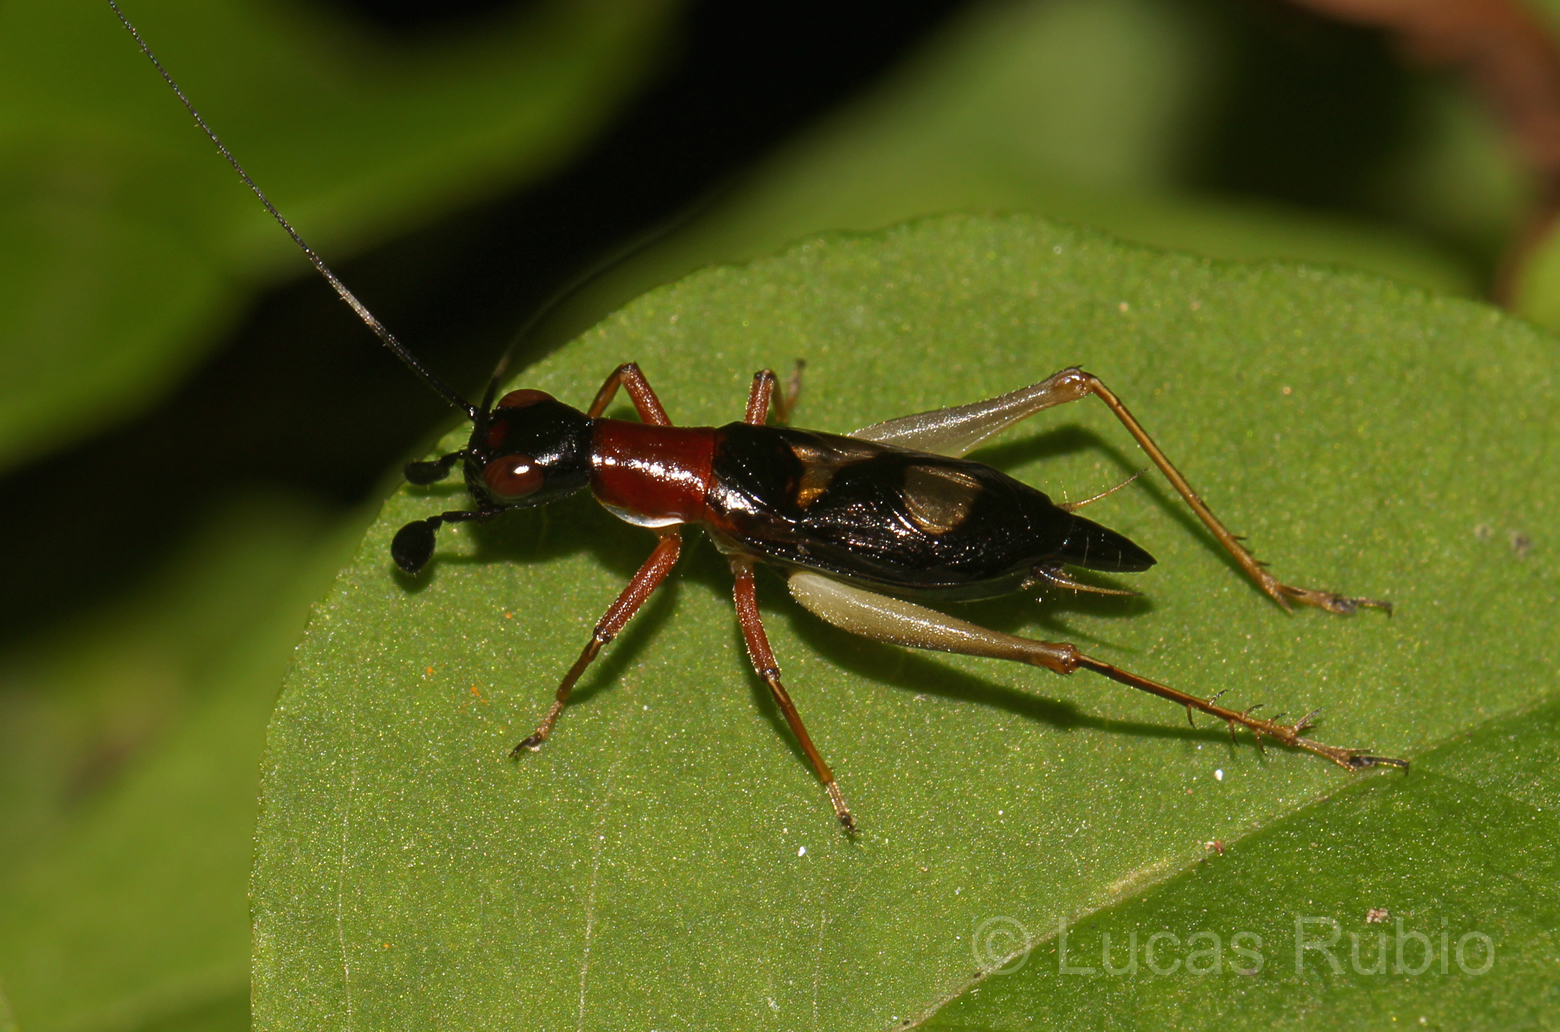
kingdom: Animalia
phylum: Arthropoda
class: Insecta
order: Orthoptera
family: Trigonidiidae
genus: Cranistus
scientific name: Cranistus colliurides
